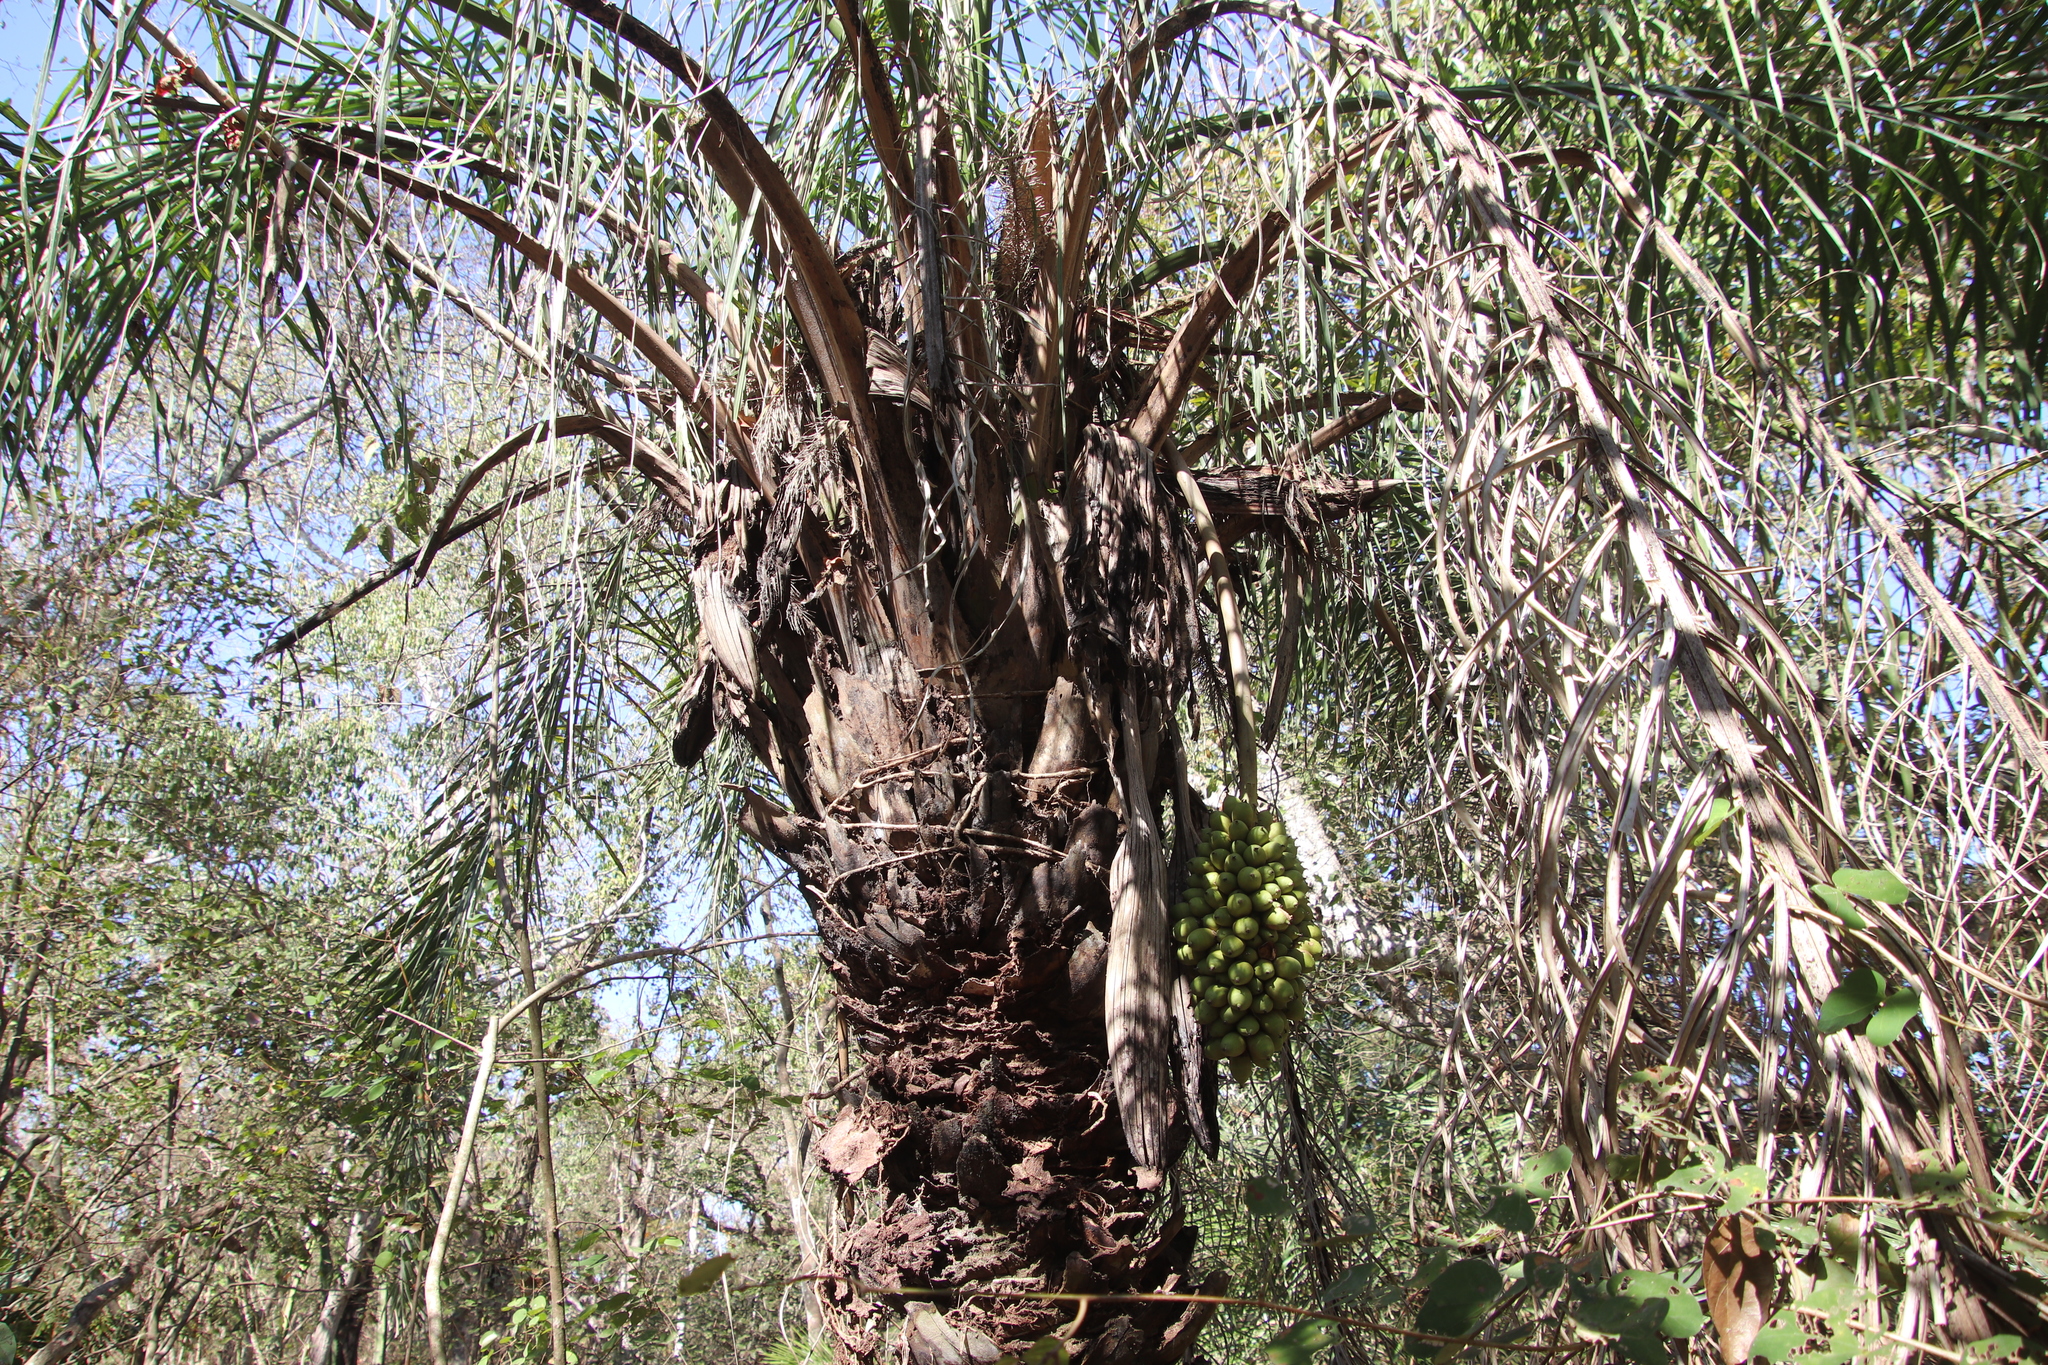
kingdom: Plantae
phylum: Tracheophyta
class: Liliopsida
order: Arecales
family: Arecaceae
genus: Attalea
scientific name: Attalea phalerata
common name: Urucuri palm
